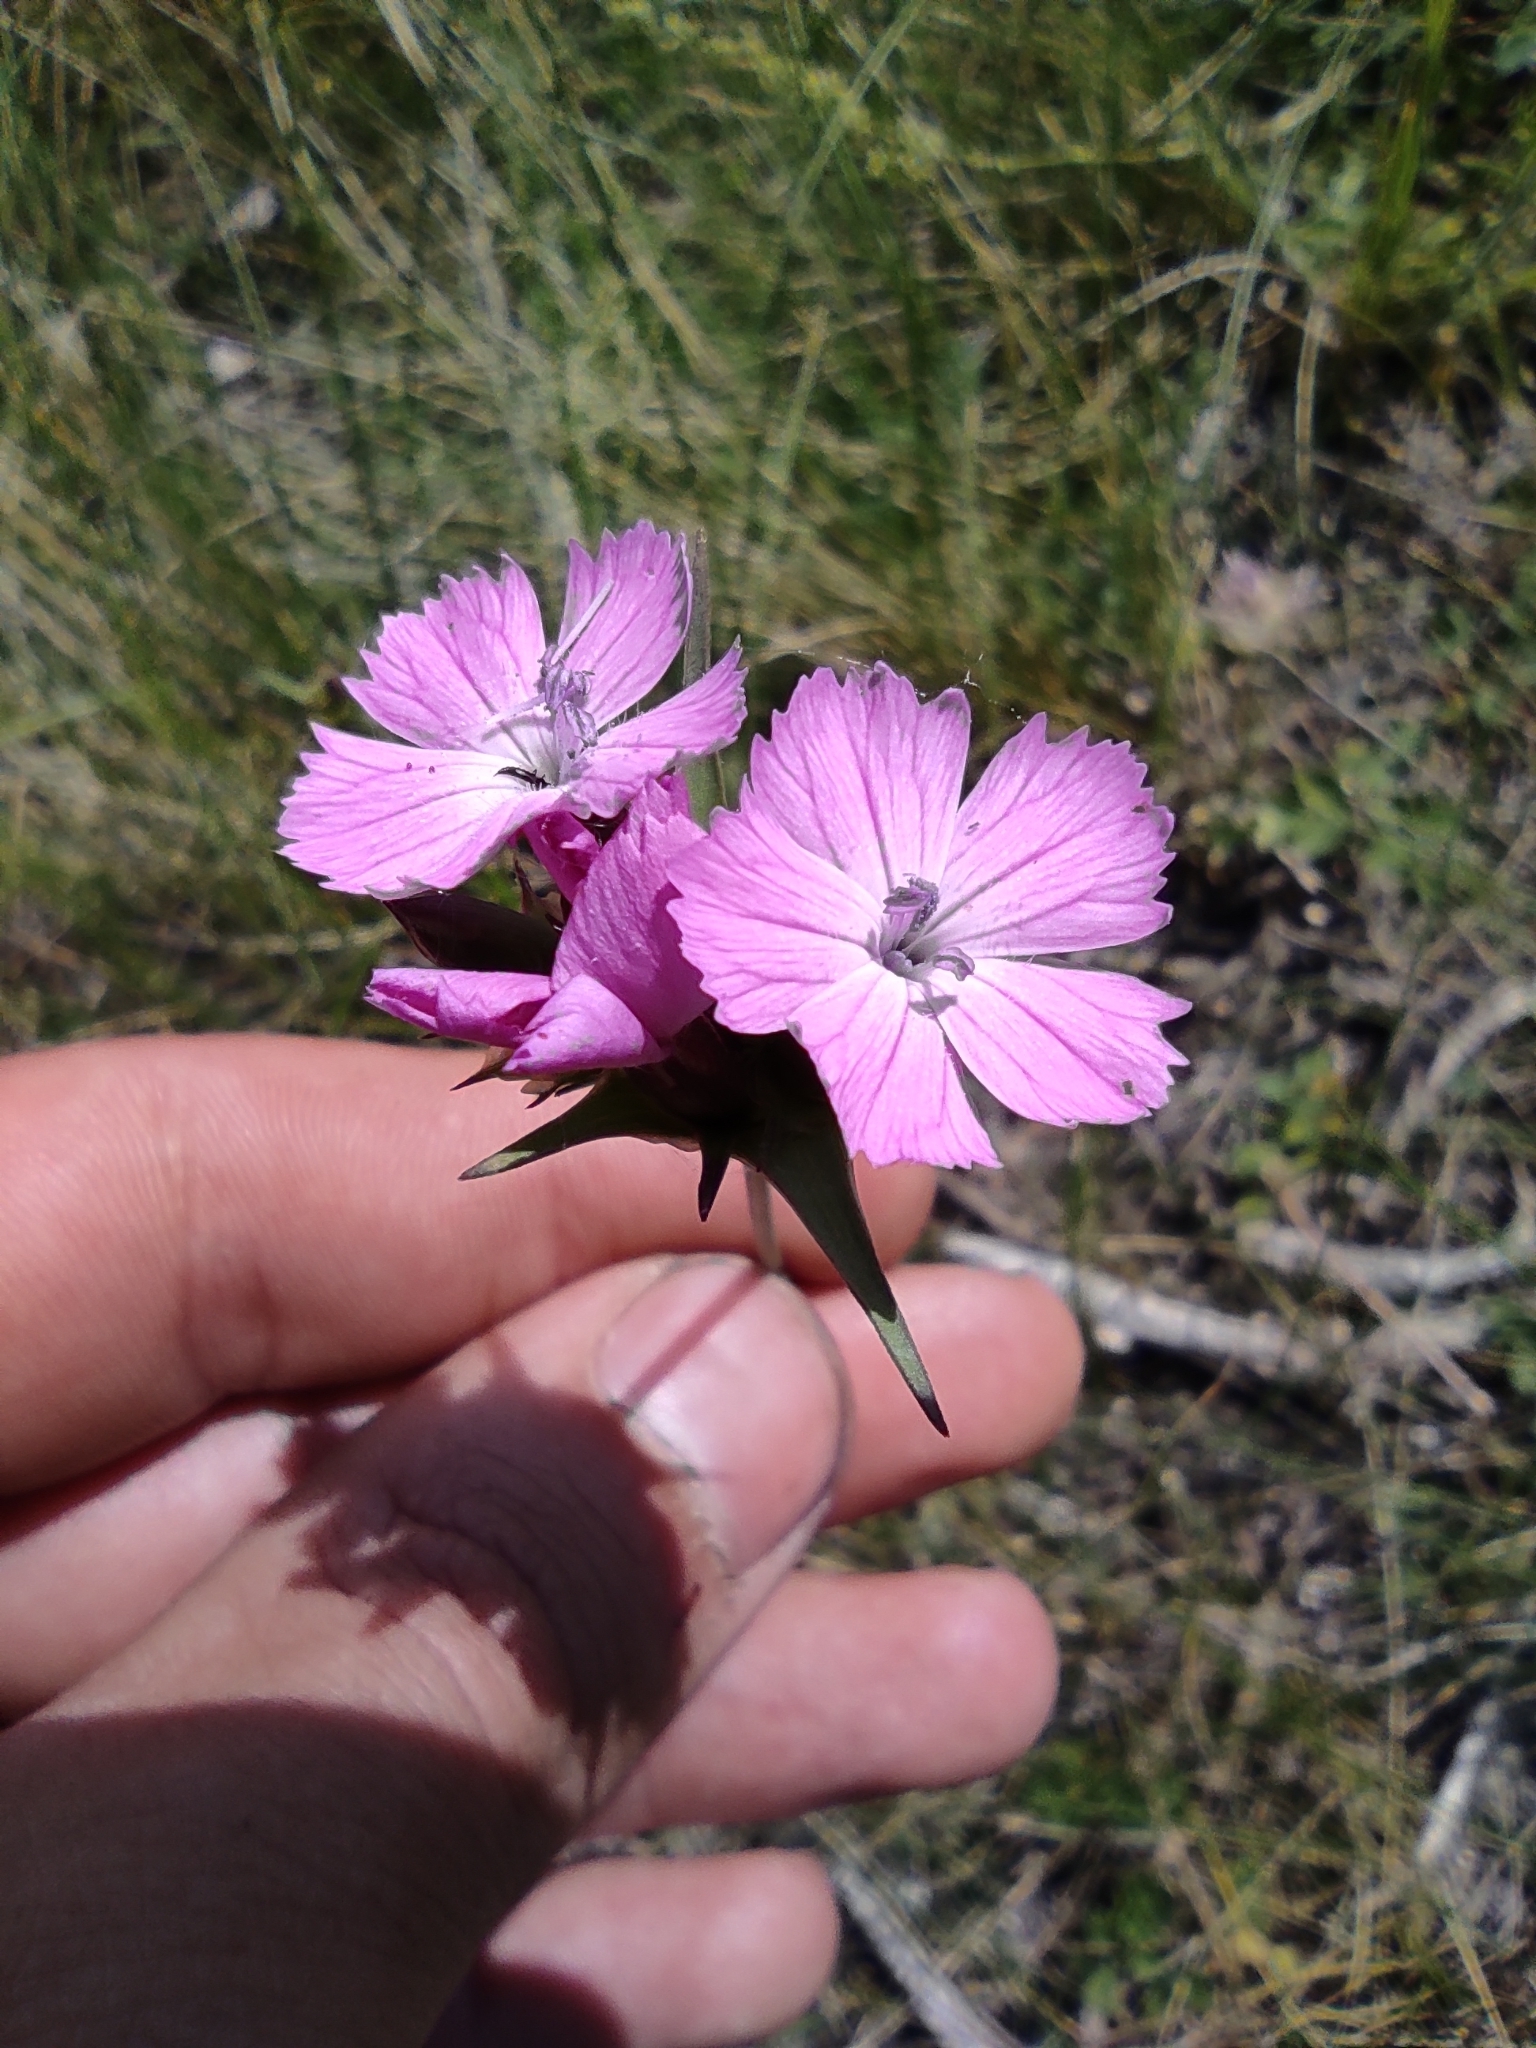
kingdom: Plantae
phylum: Tracheophyta
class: Magnoliopsida
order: Caryophyllales
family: Caryophyllaceae
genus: Dianthus
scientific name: Dianthus capitatus
